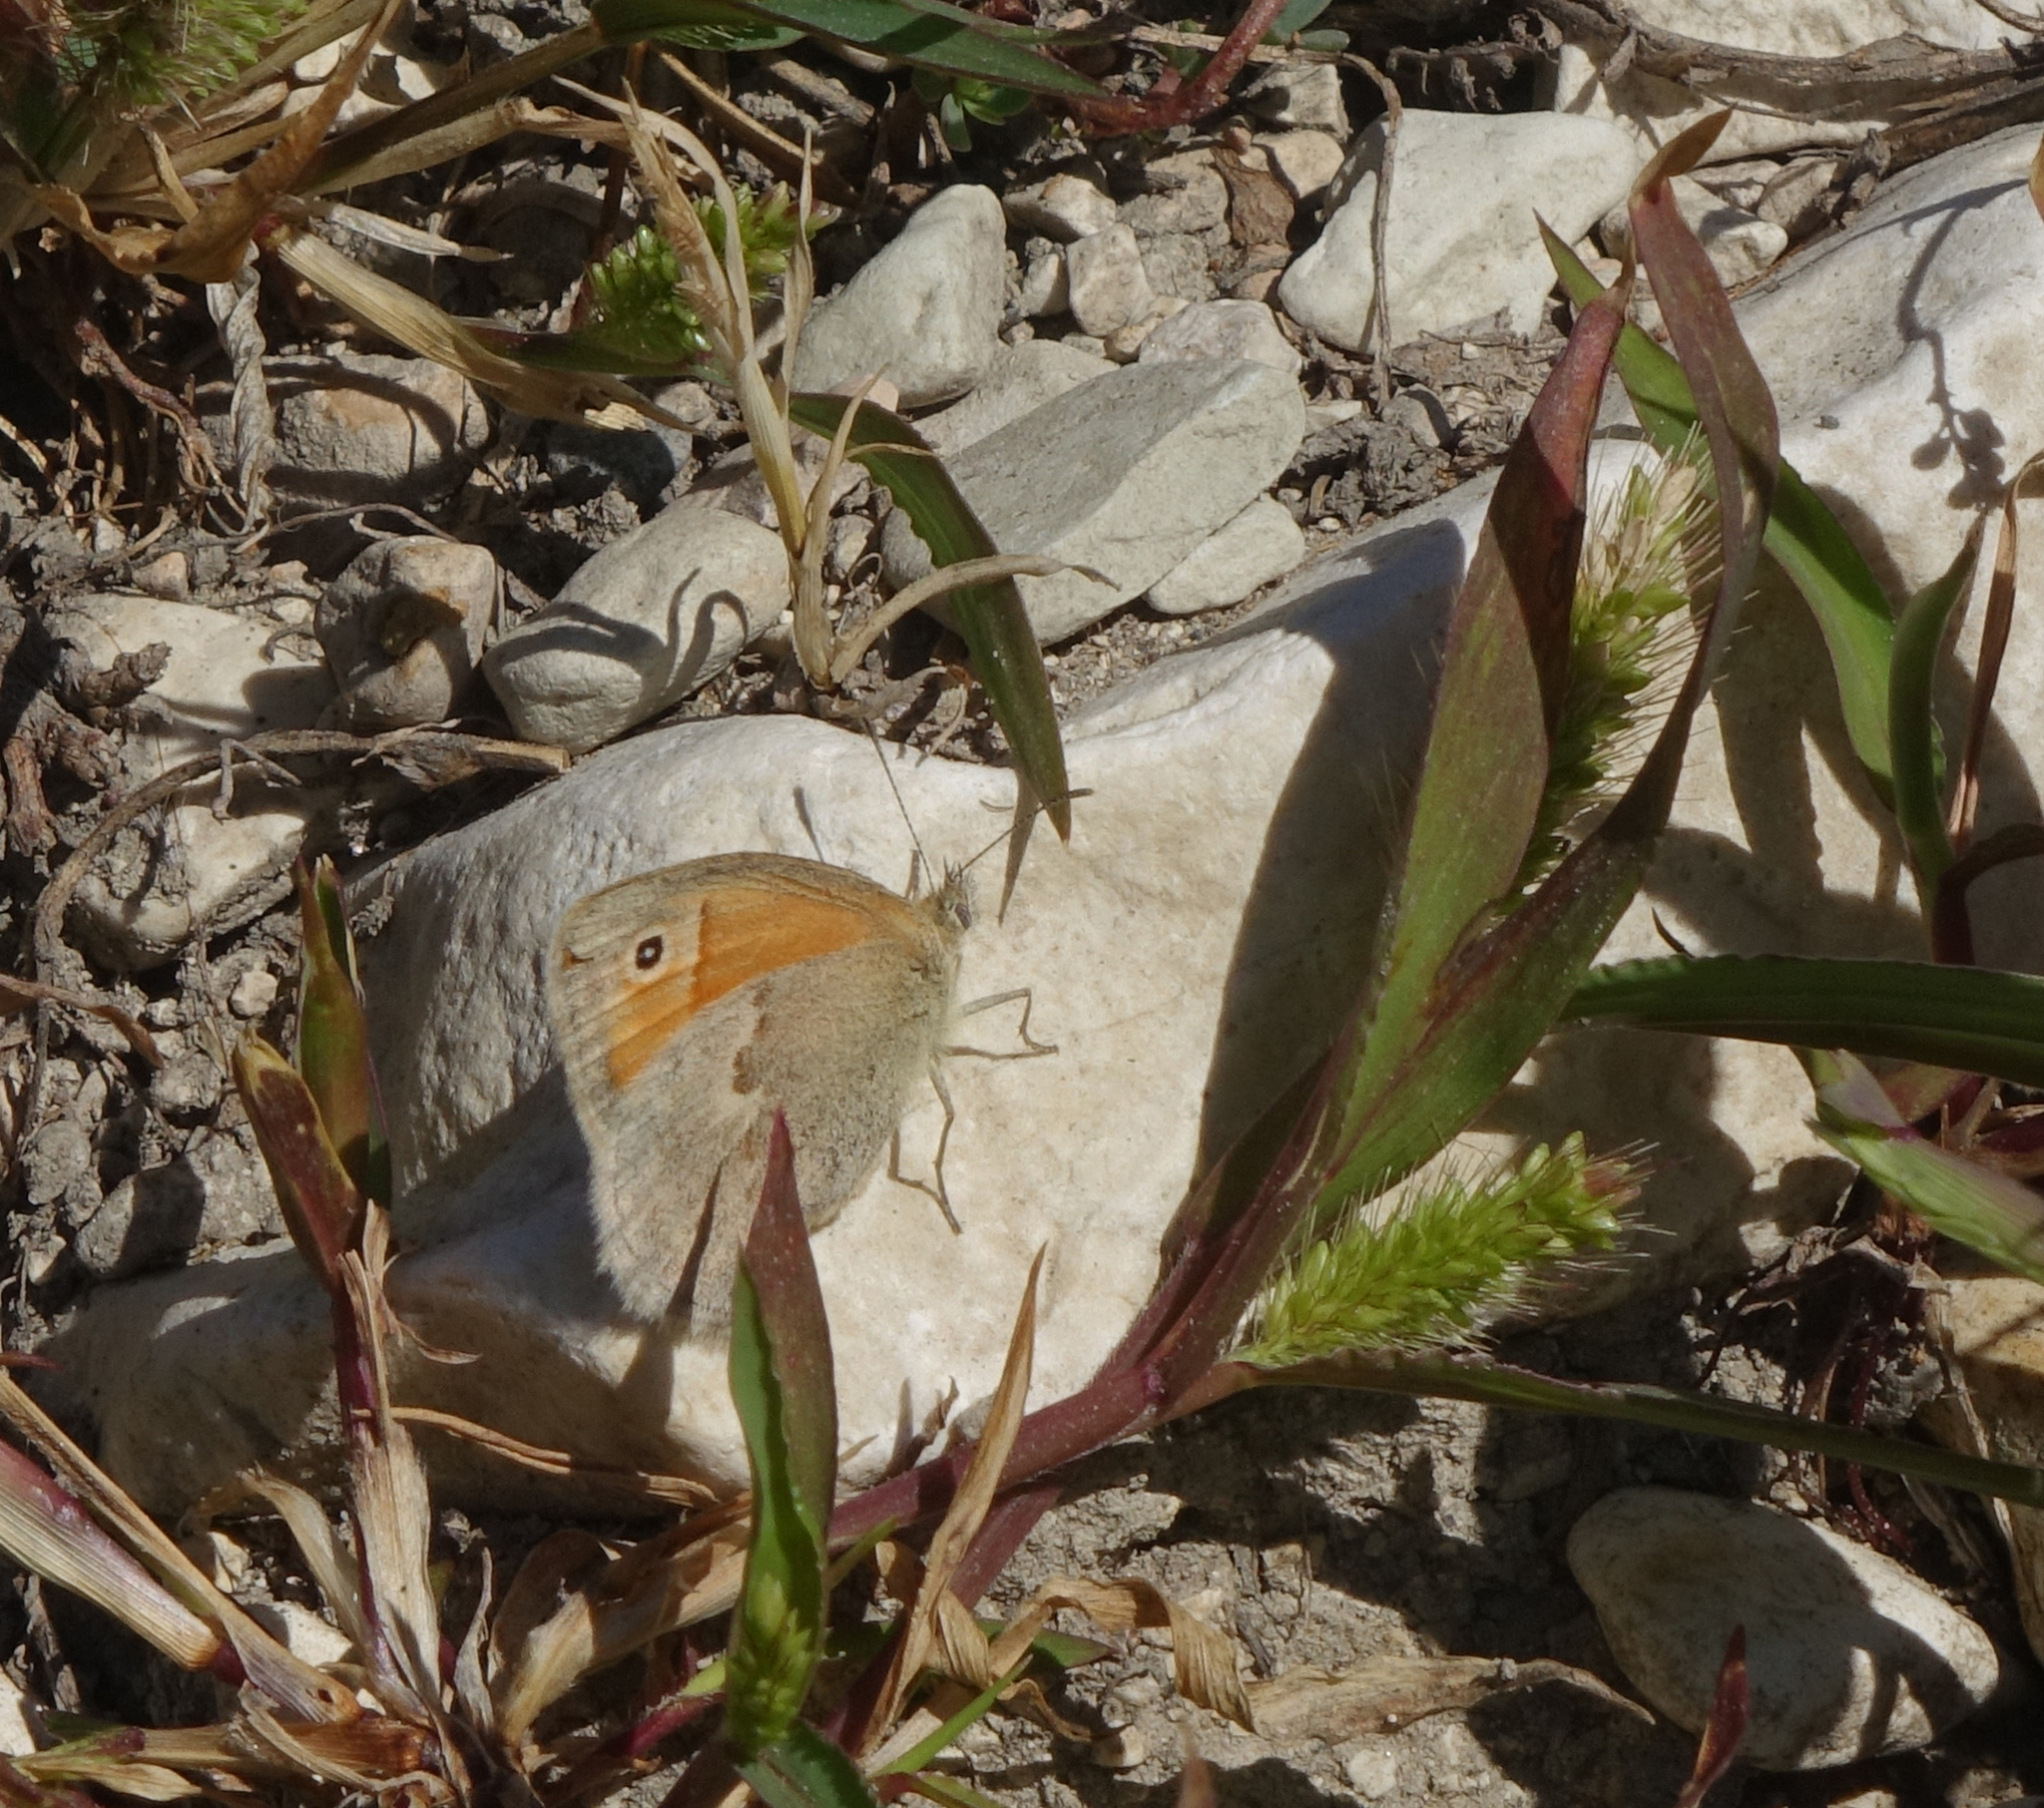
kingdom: Animalia
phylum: Arthropoda
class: Insecta
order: Lepidoptera
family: Nymphalidae
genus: Coenonympha
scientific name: Coenonympha pamphilus
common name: Small heath
